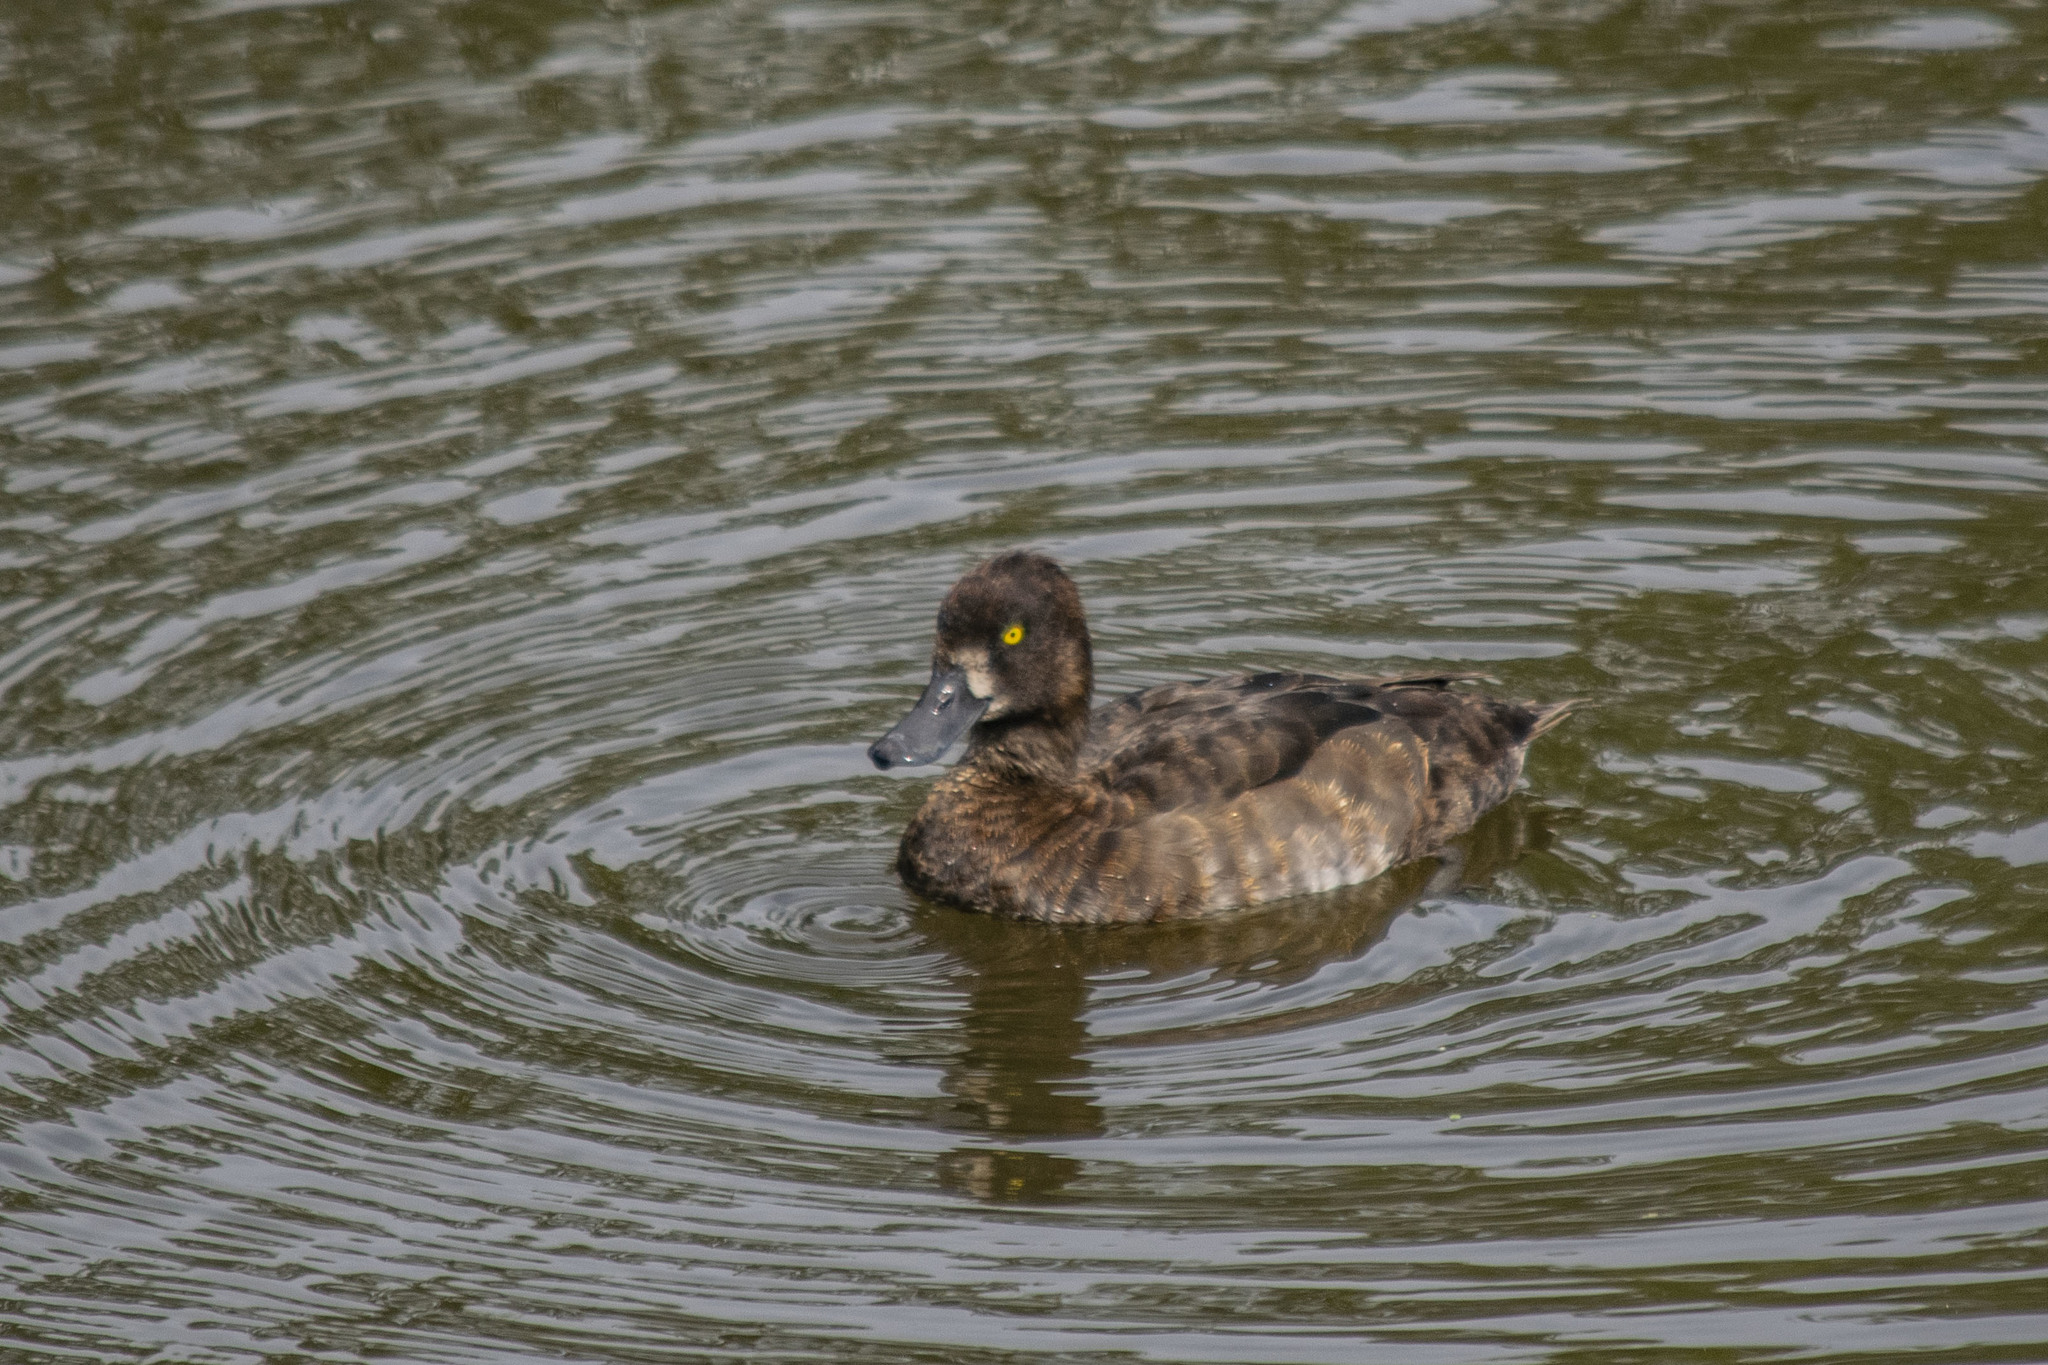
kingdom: Animalia
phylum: Chordata
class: Aves
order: Anseriformes
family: Anatidae
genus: Aythya
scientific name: Aythya fuligula
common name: Tufted duck
